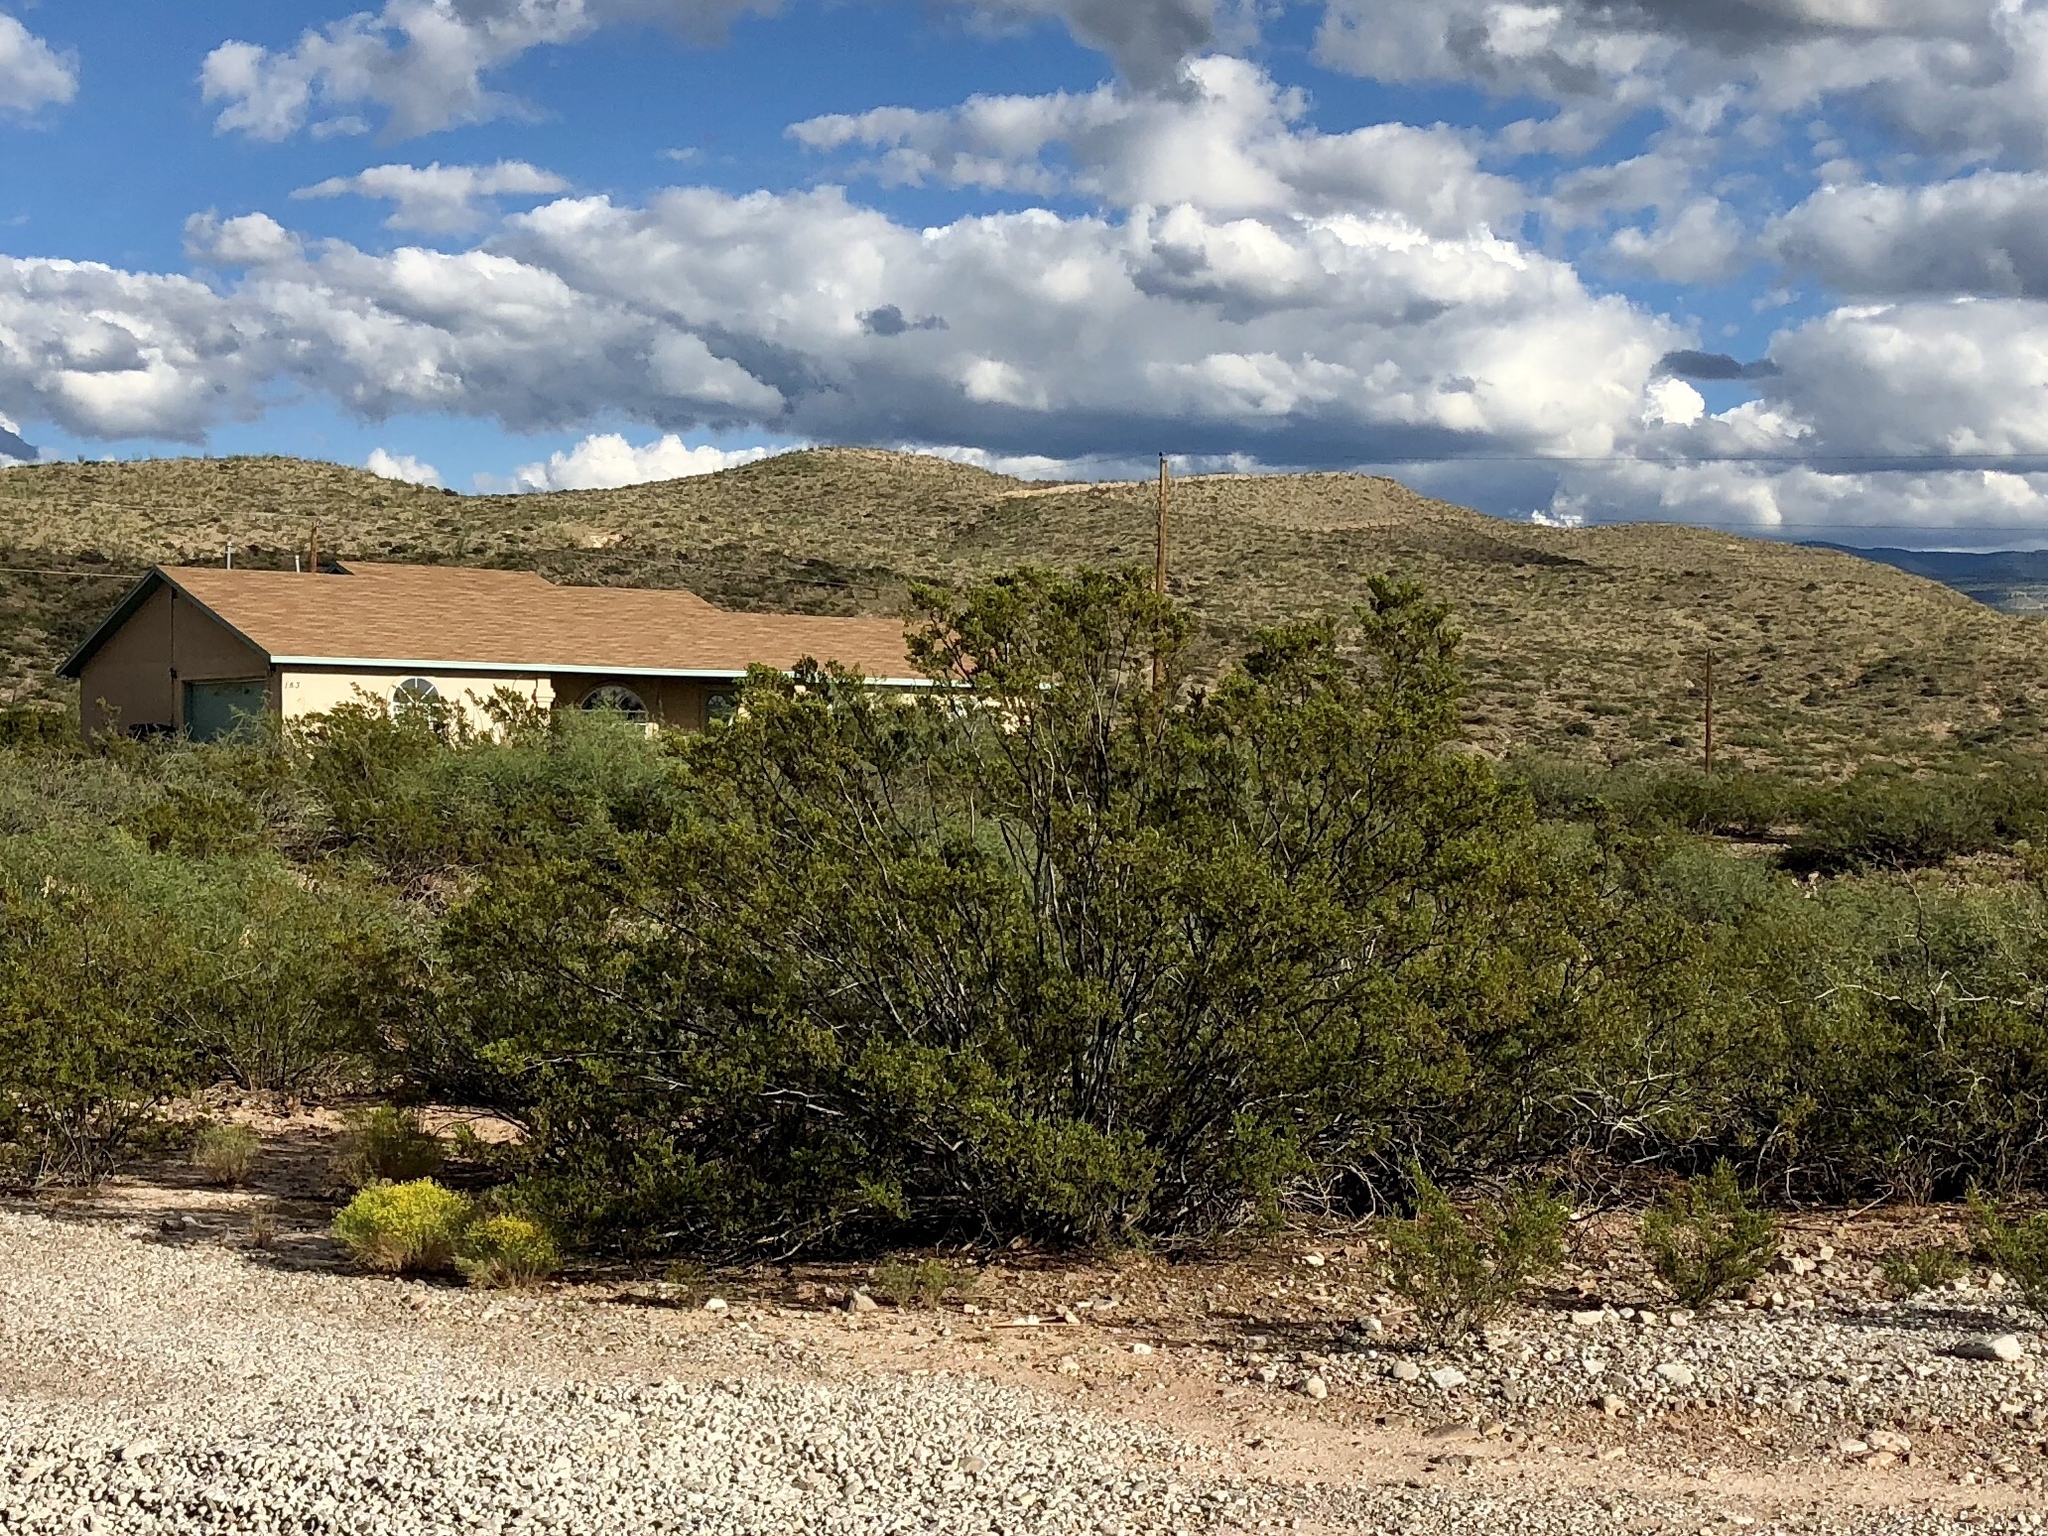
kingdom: Plantae
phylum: Tracheophyta
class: Magnoliopsida
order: Zygophyllales
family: Zygophyllaceae
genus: Larrea
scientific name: Larrea tridentata
